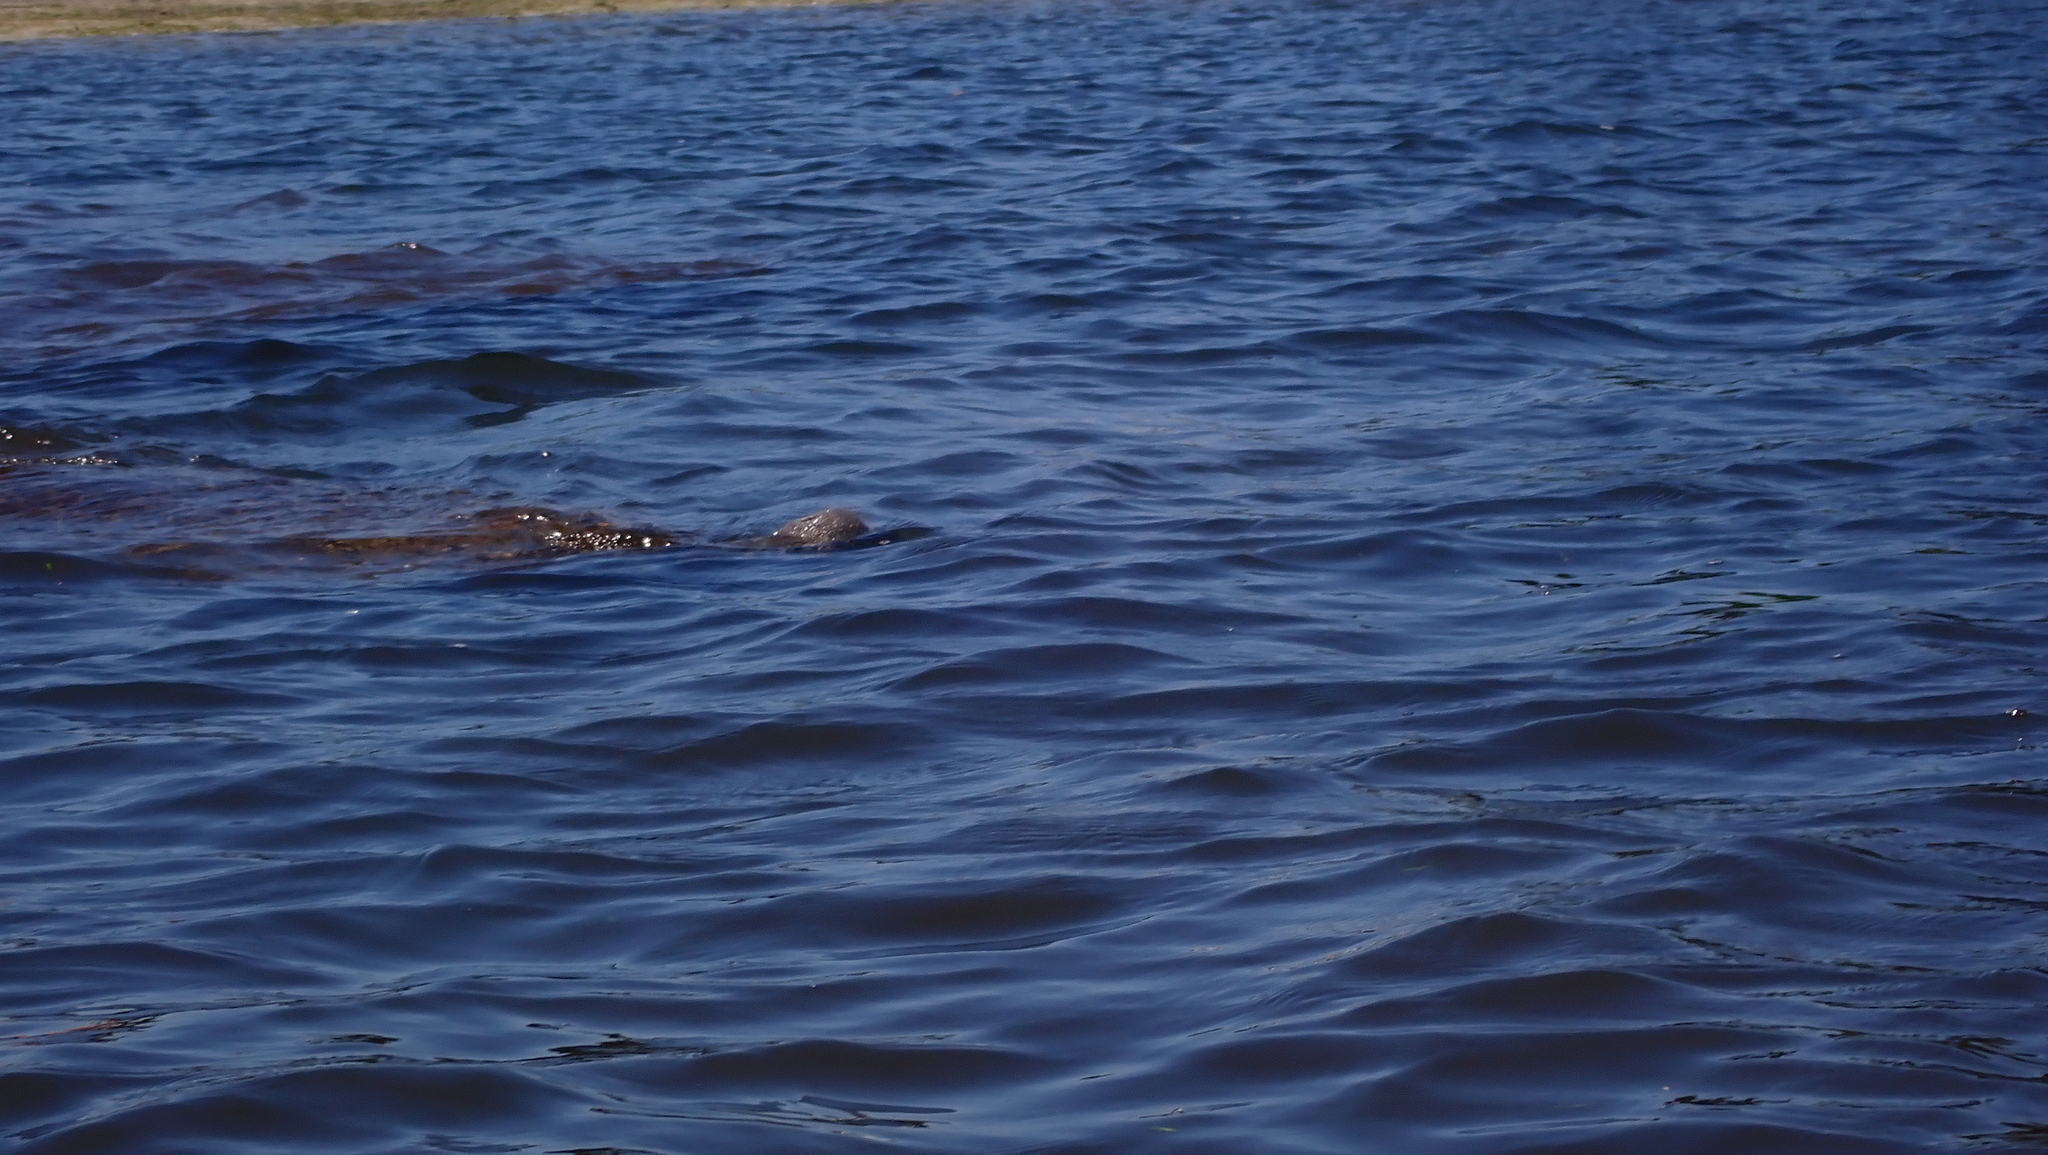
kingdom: Animalia
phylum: Chordata
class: Mammalia
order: Sirenia
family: Trichechidae
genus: Trichechus
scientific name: Trichechus manatus
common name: West indian manatee
